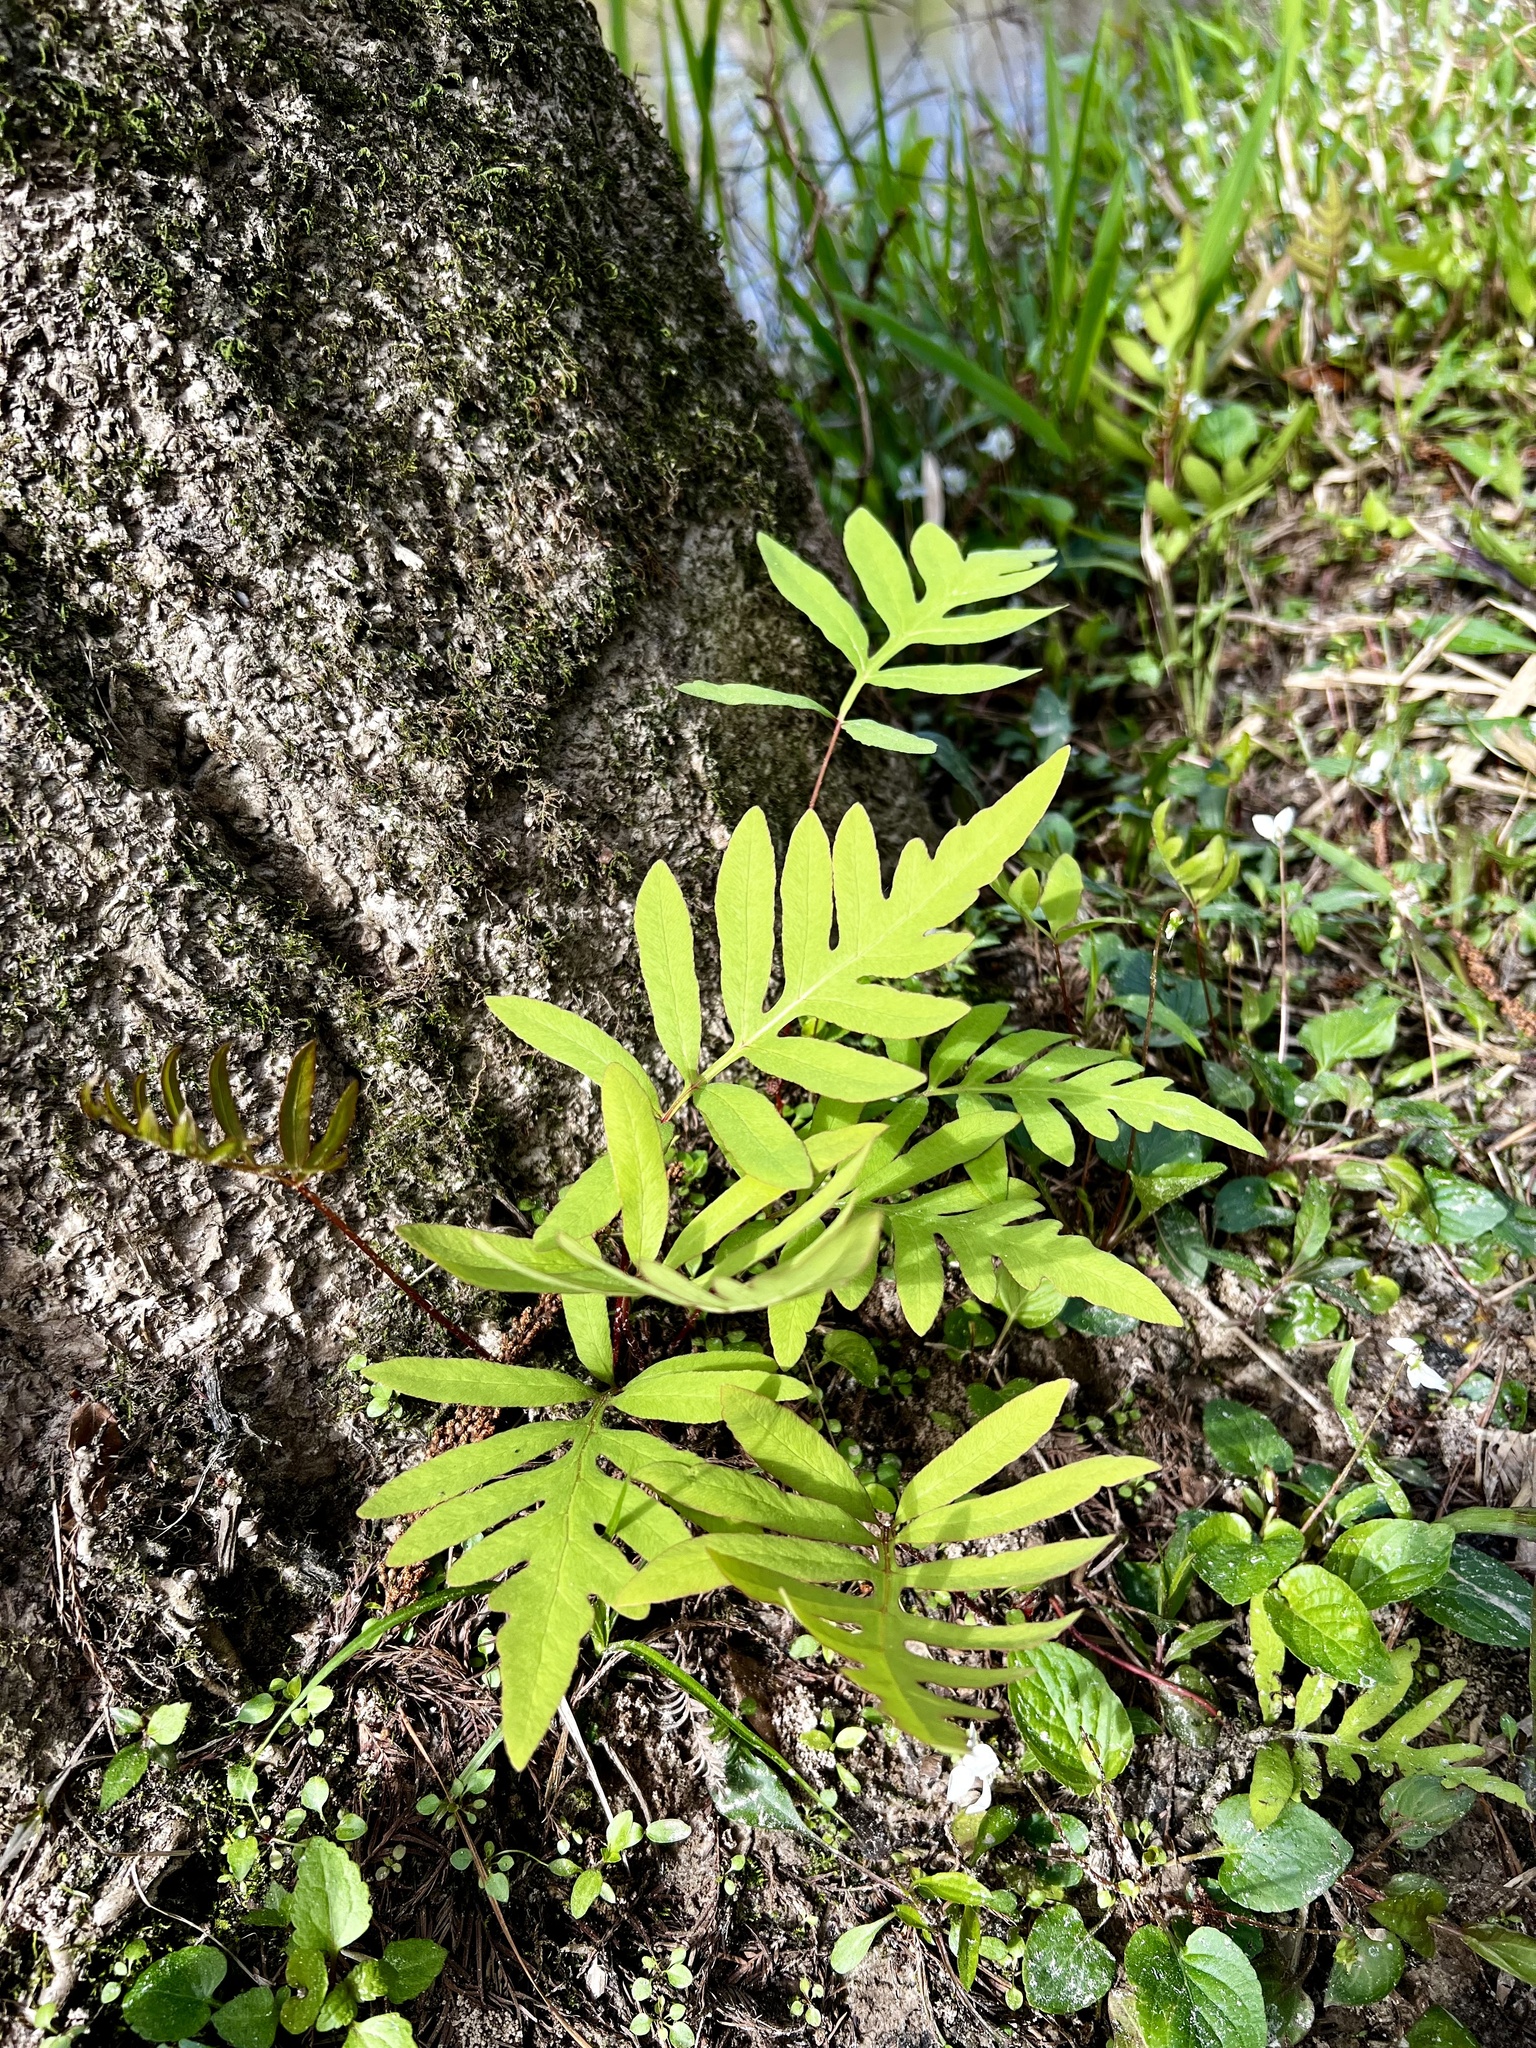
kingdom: Plantae
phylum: Tracheophyta
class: Polypodiopsida
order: Polypodiales
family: Onocleaceae
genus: Onoclea
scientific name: Onoclea sensibilis
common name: Sensitive fern
